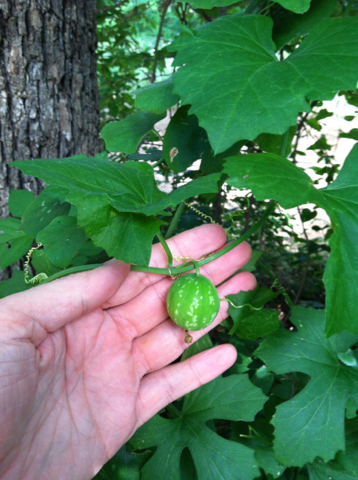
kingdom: Plantae
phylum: Tracheophyta
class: Magnoliopsida
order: Cucurbitales
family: Cucurbitaceae
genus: Ibervillea
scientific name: Ibervillea lindheimeri
